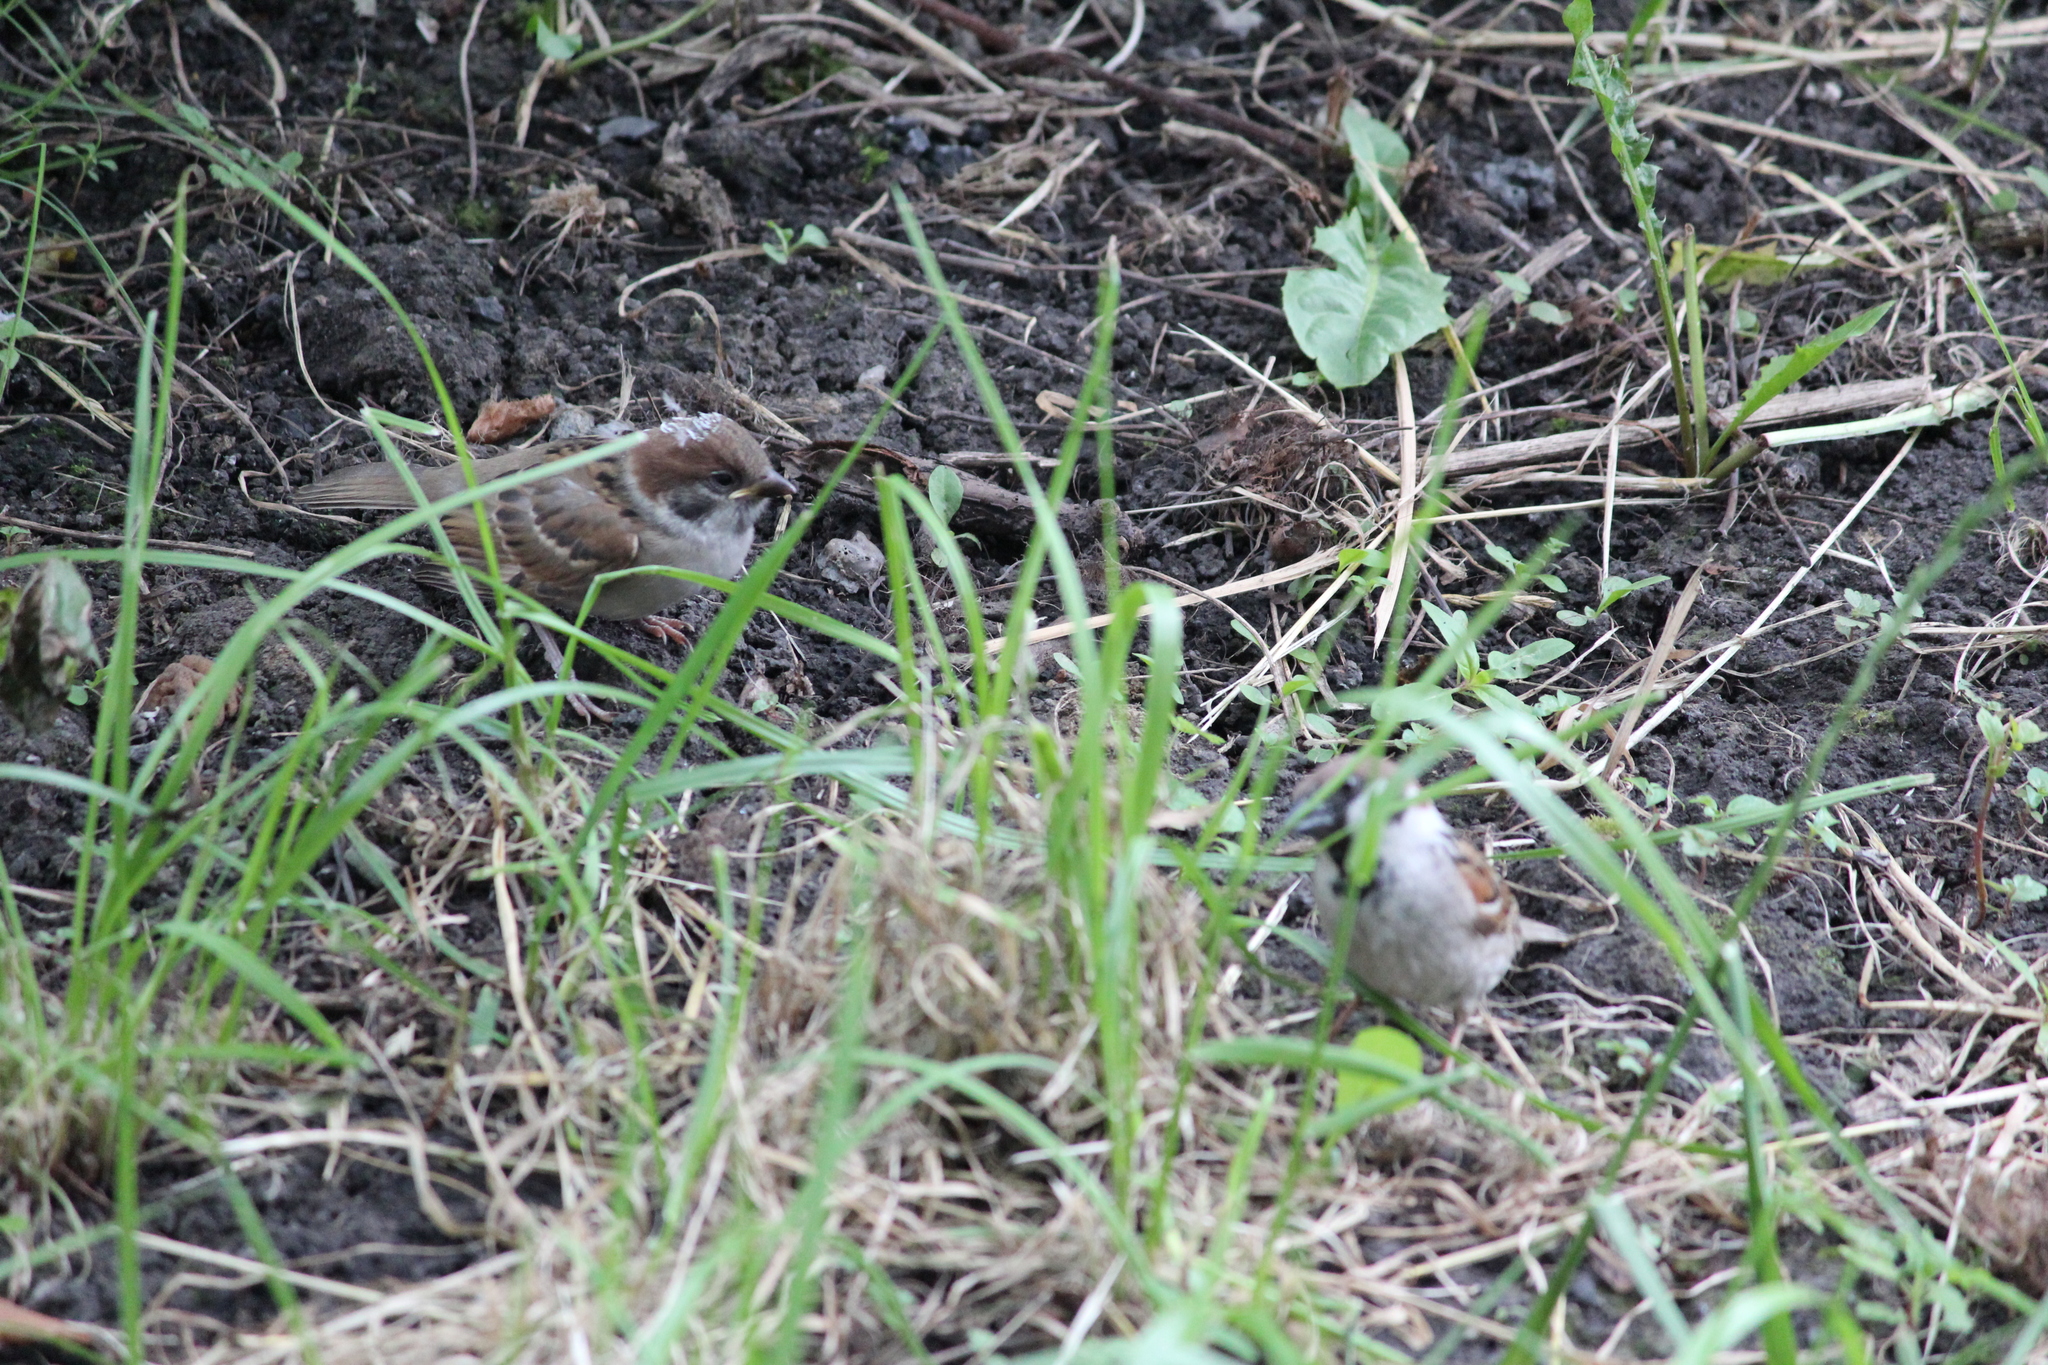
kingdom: Animalia
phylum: Chordata
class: Aves
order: Passeriformes
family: Passeridae
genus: Passer
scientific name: Passer montanus
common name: Eurasian tree sparrow
